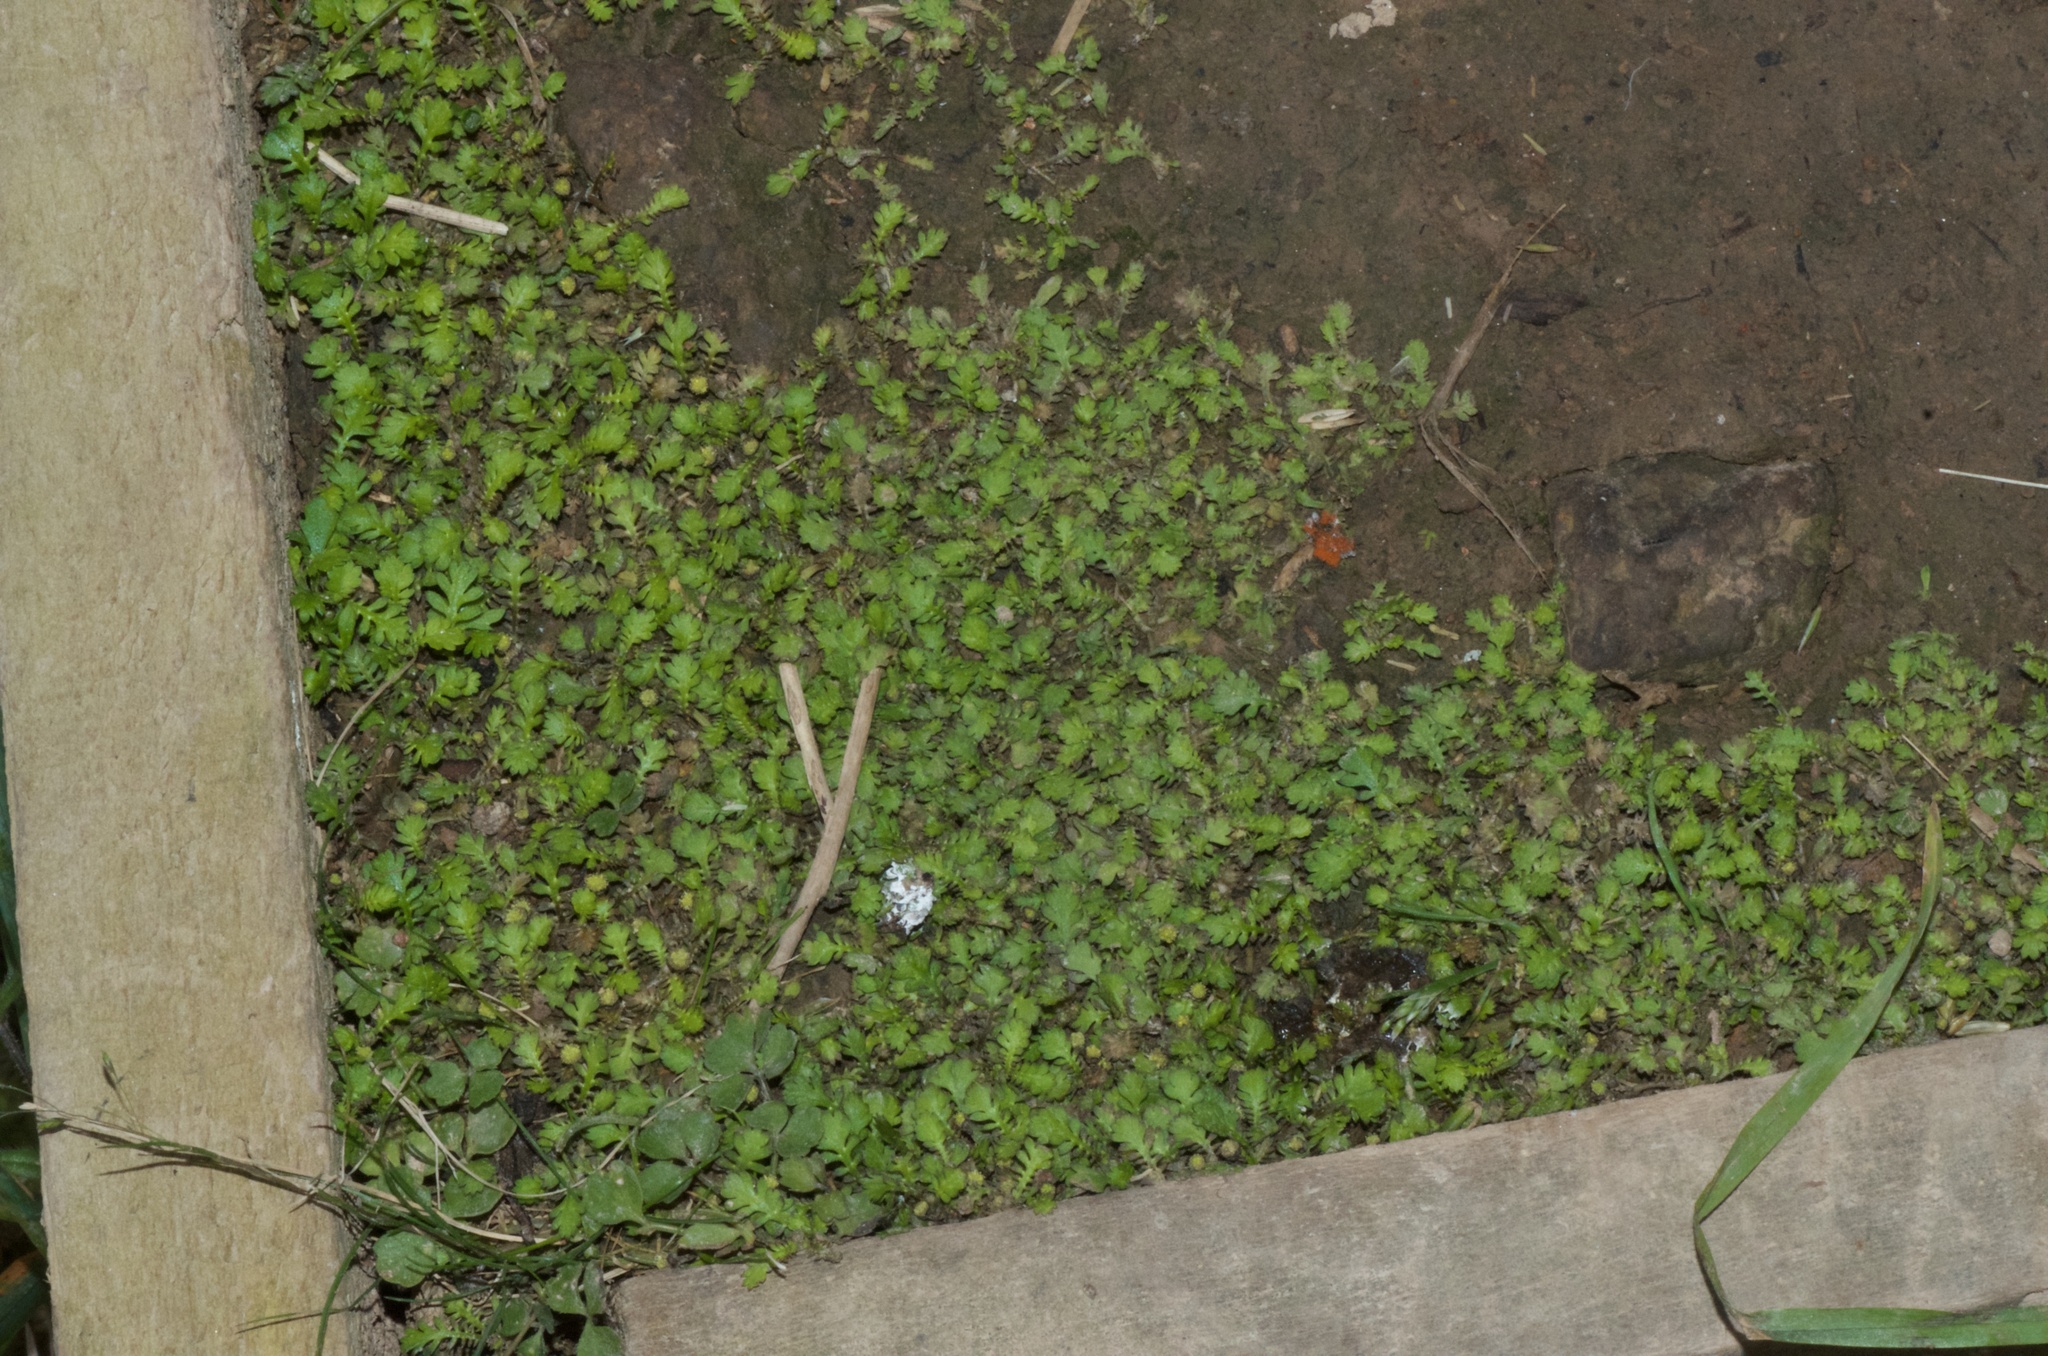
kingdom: Plantae
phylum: Tracheophyta
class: Magnoliopsida
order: Asterales
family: Asteraceae
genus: Leptinella
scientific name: Leptinella nana
